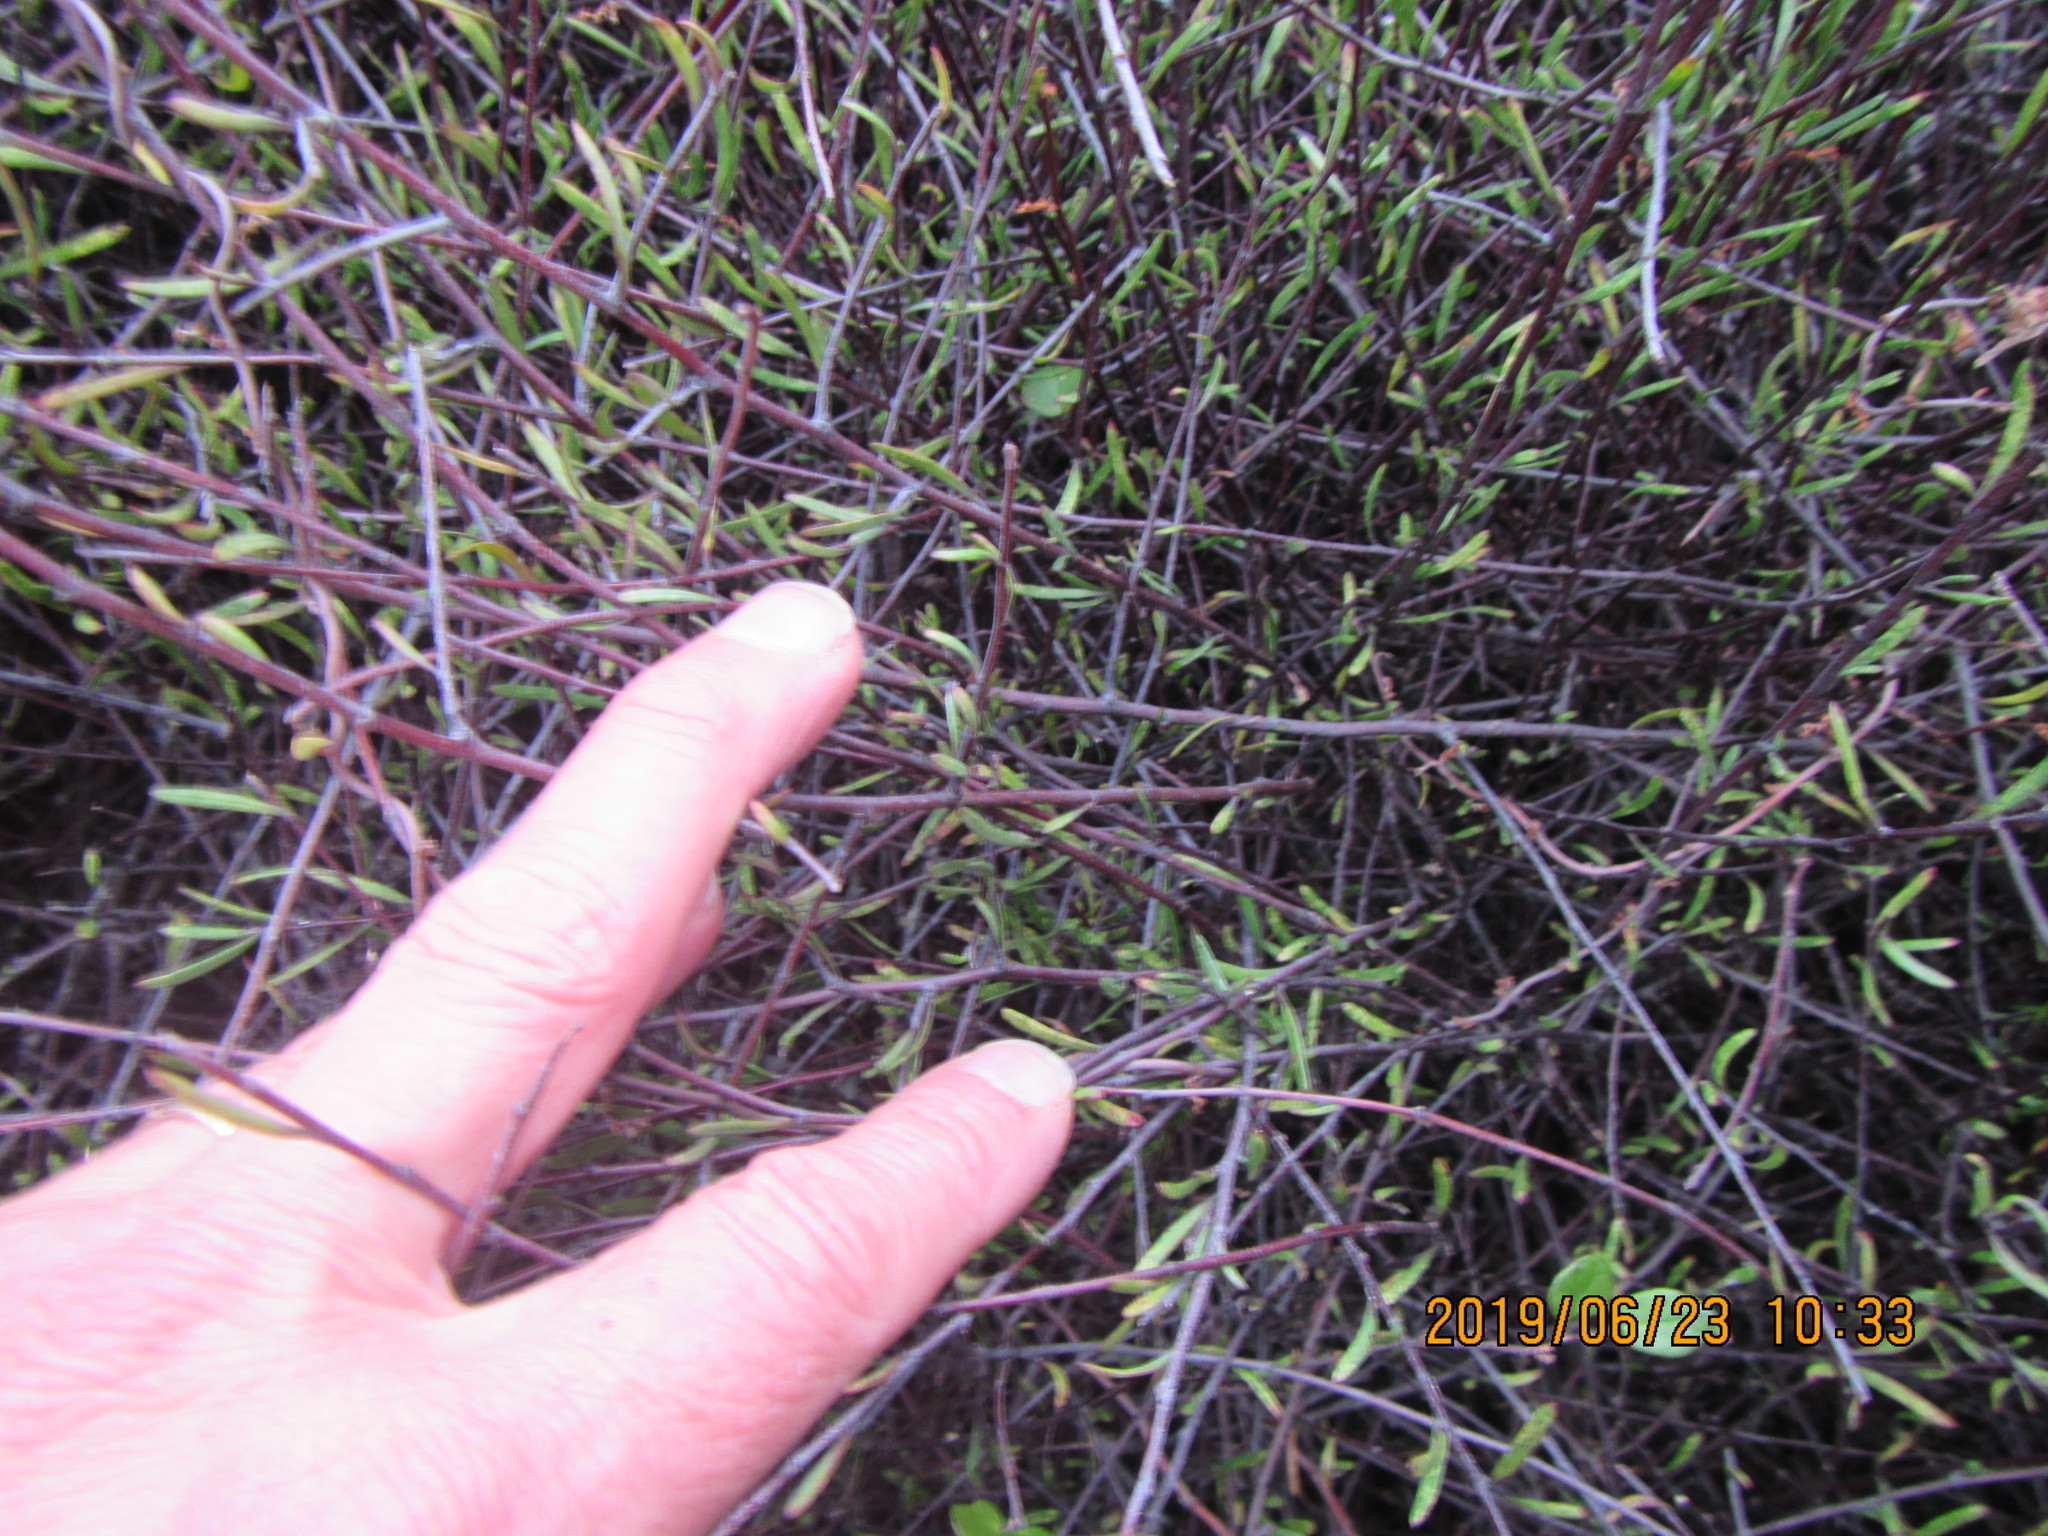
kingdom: Plantae
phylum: Tracheophyta
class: Magnoliopsida
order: Malvales
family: Malvaceae
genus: Plagianthus
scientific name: Plagianthus divaricatus
